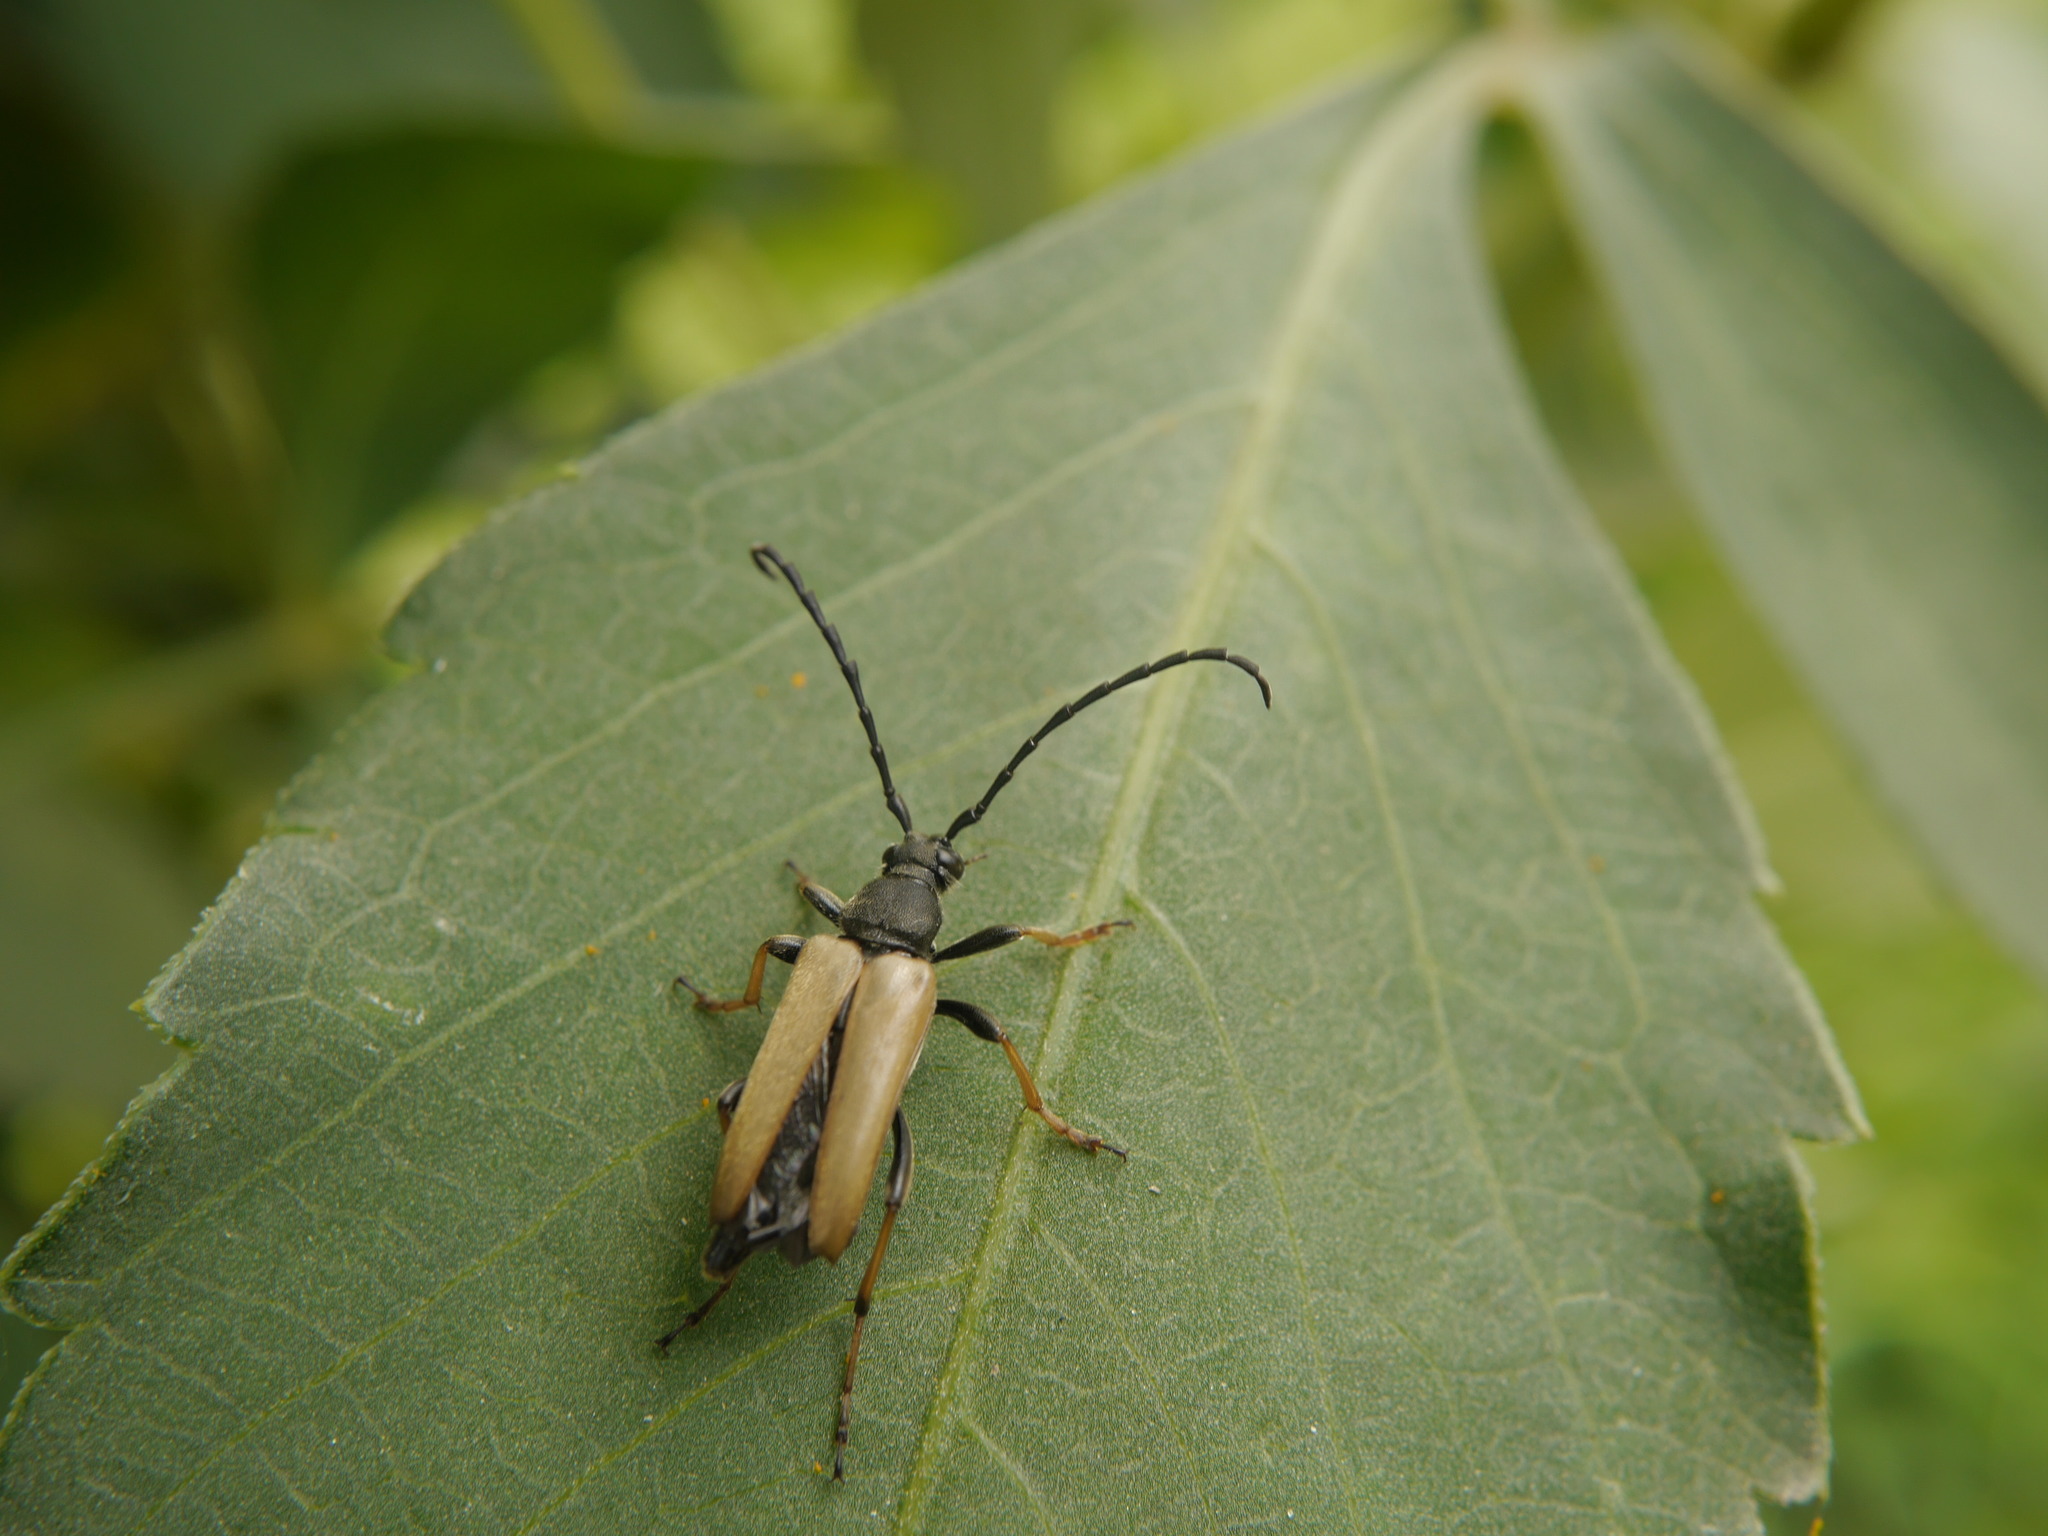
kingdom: Animalia
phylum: Arthropoda
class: Insecta
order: Coleoptera
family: Cerambycidae
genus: Stictoleptura
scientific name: Stictoleptura rubra
